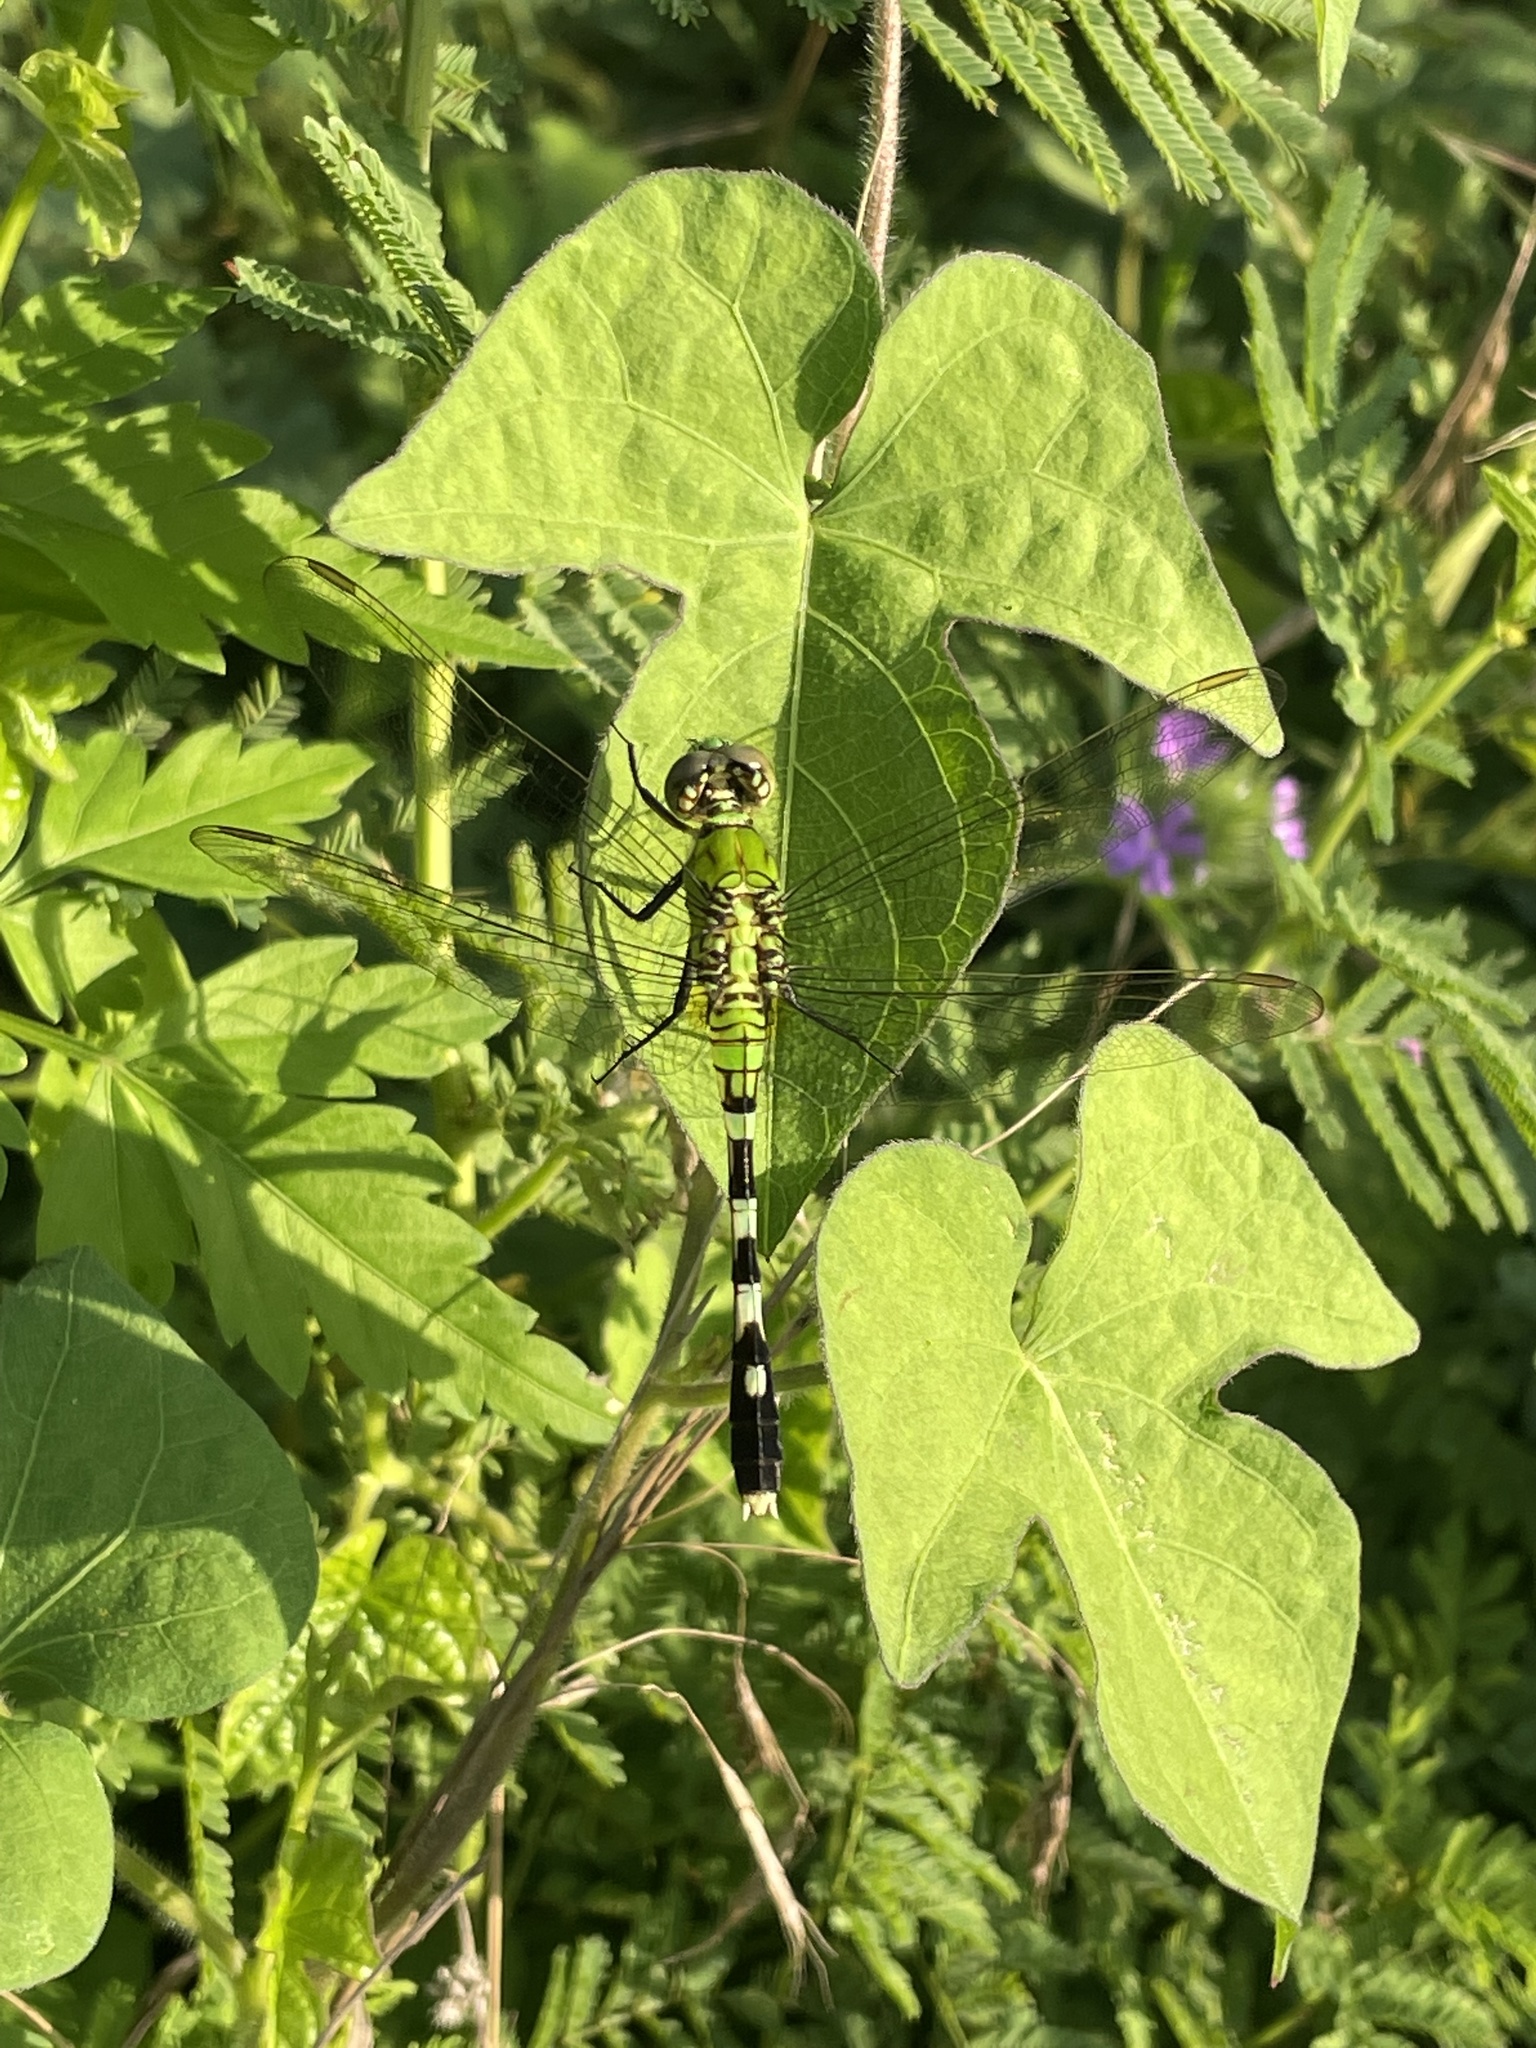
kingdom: Animalia
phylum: Arthropoda
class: Insecta
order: Odonata
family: Libellulidae
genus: Erythemis
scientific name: Erythemis simplicicollis
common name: Eastern pondhawk
